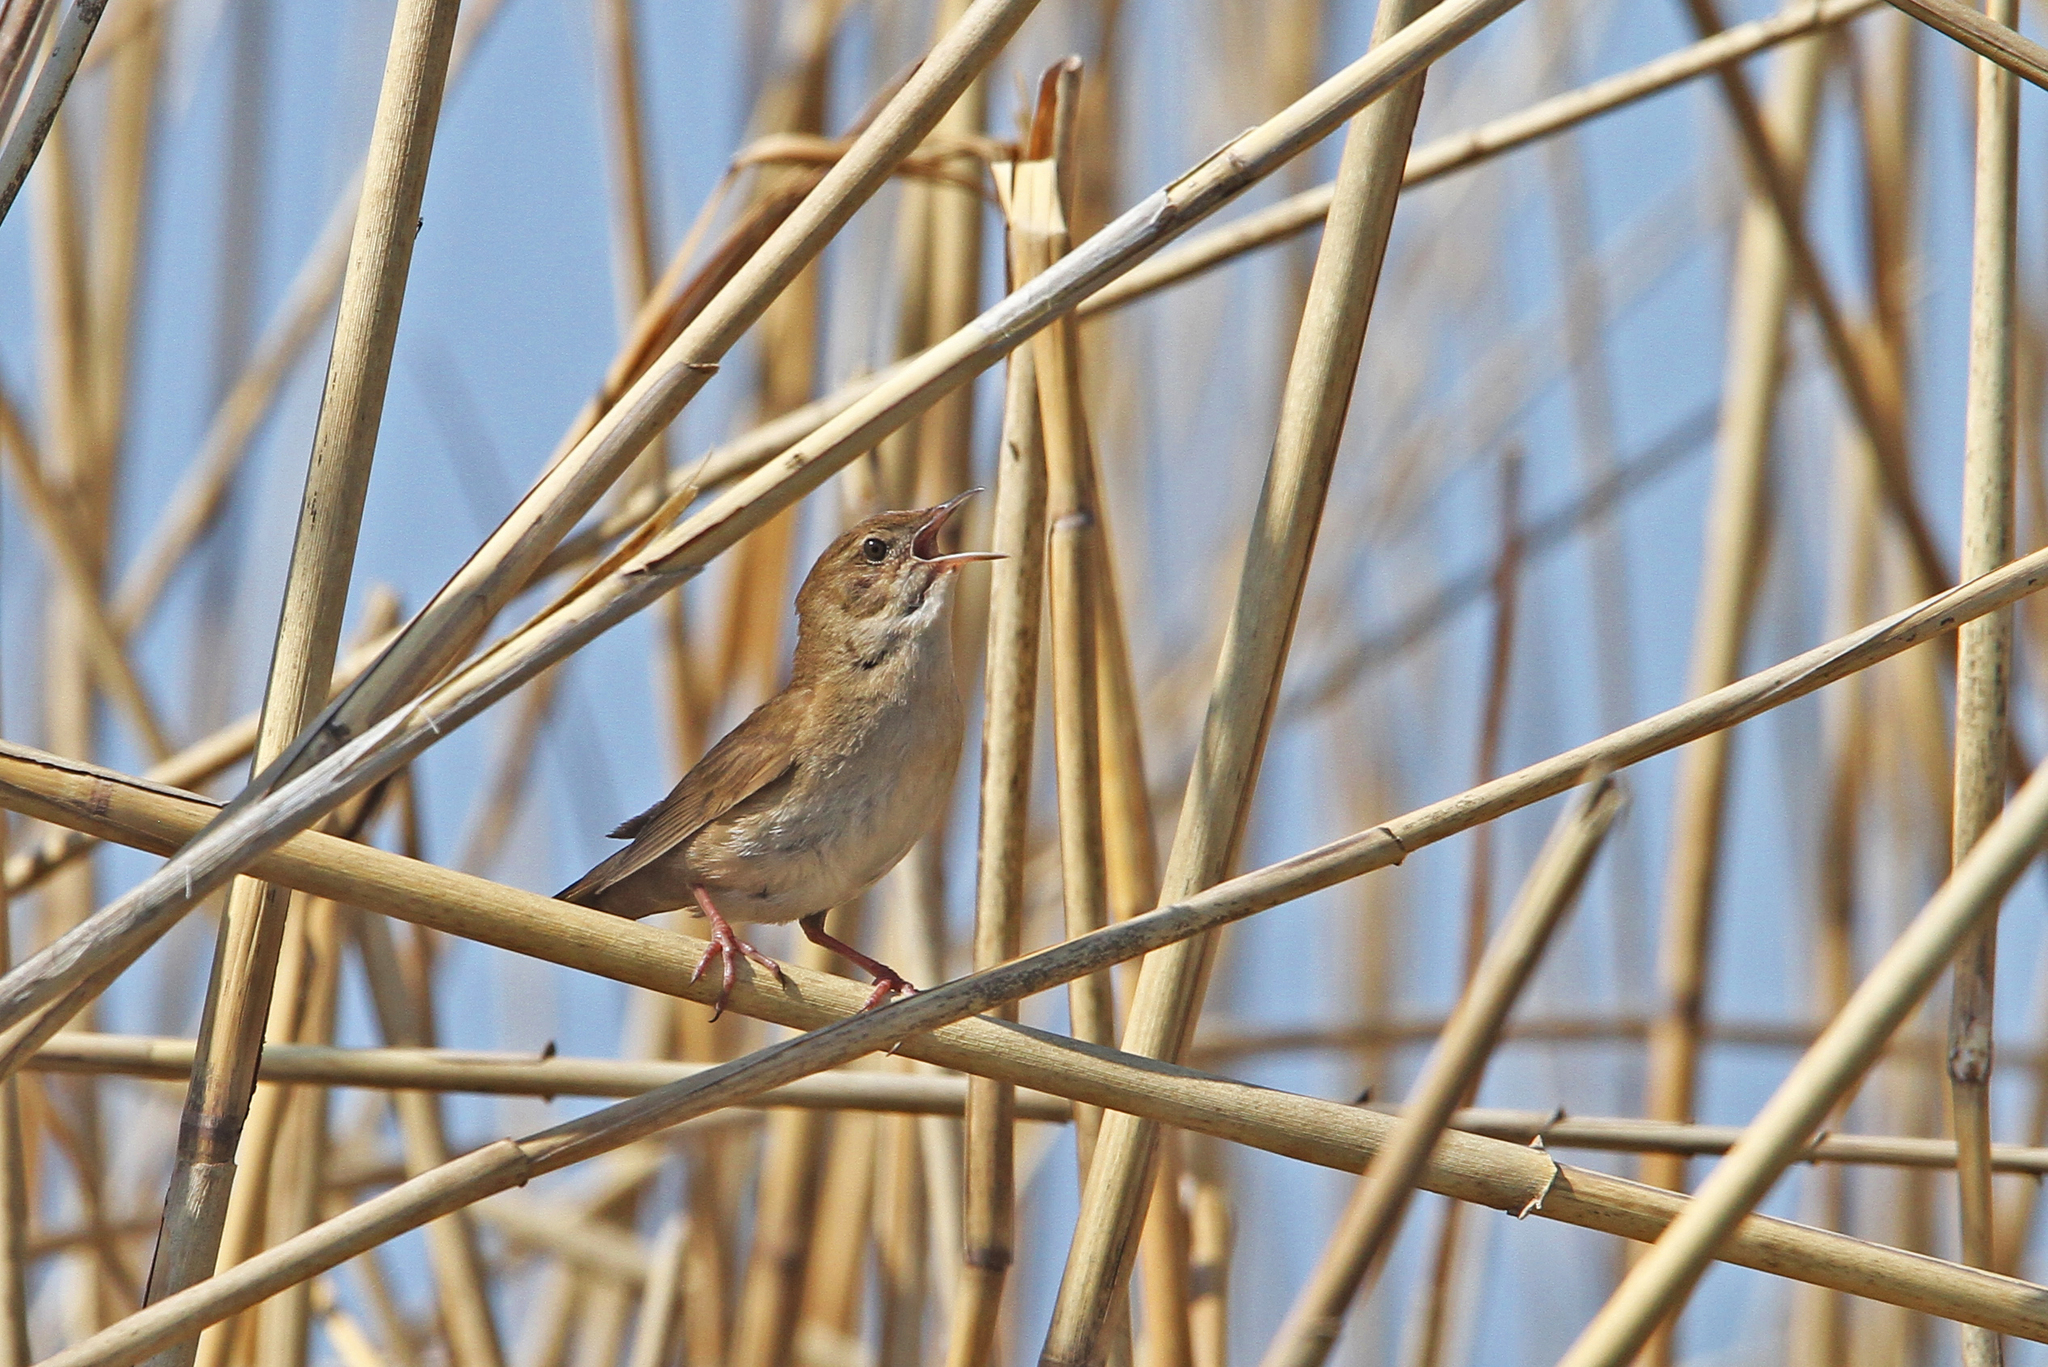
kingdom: Animalia
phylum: Chordata
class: Aves
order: Passeriformes
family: Locustellidae
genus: Locustella
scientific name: Locustella luscinioides
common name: Savi's warbler
